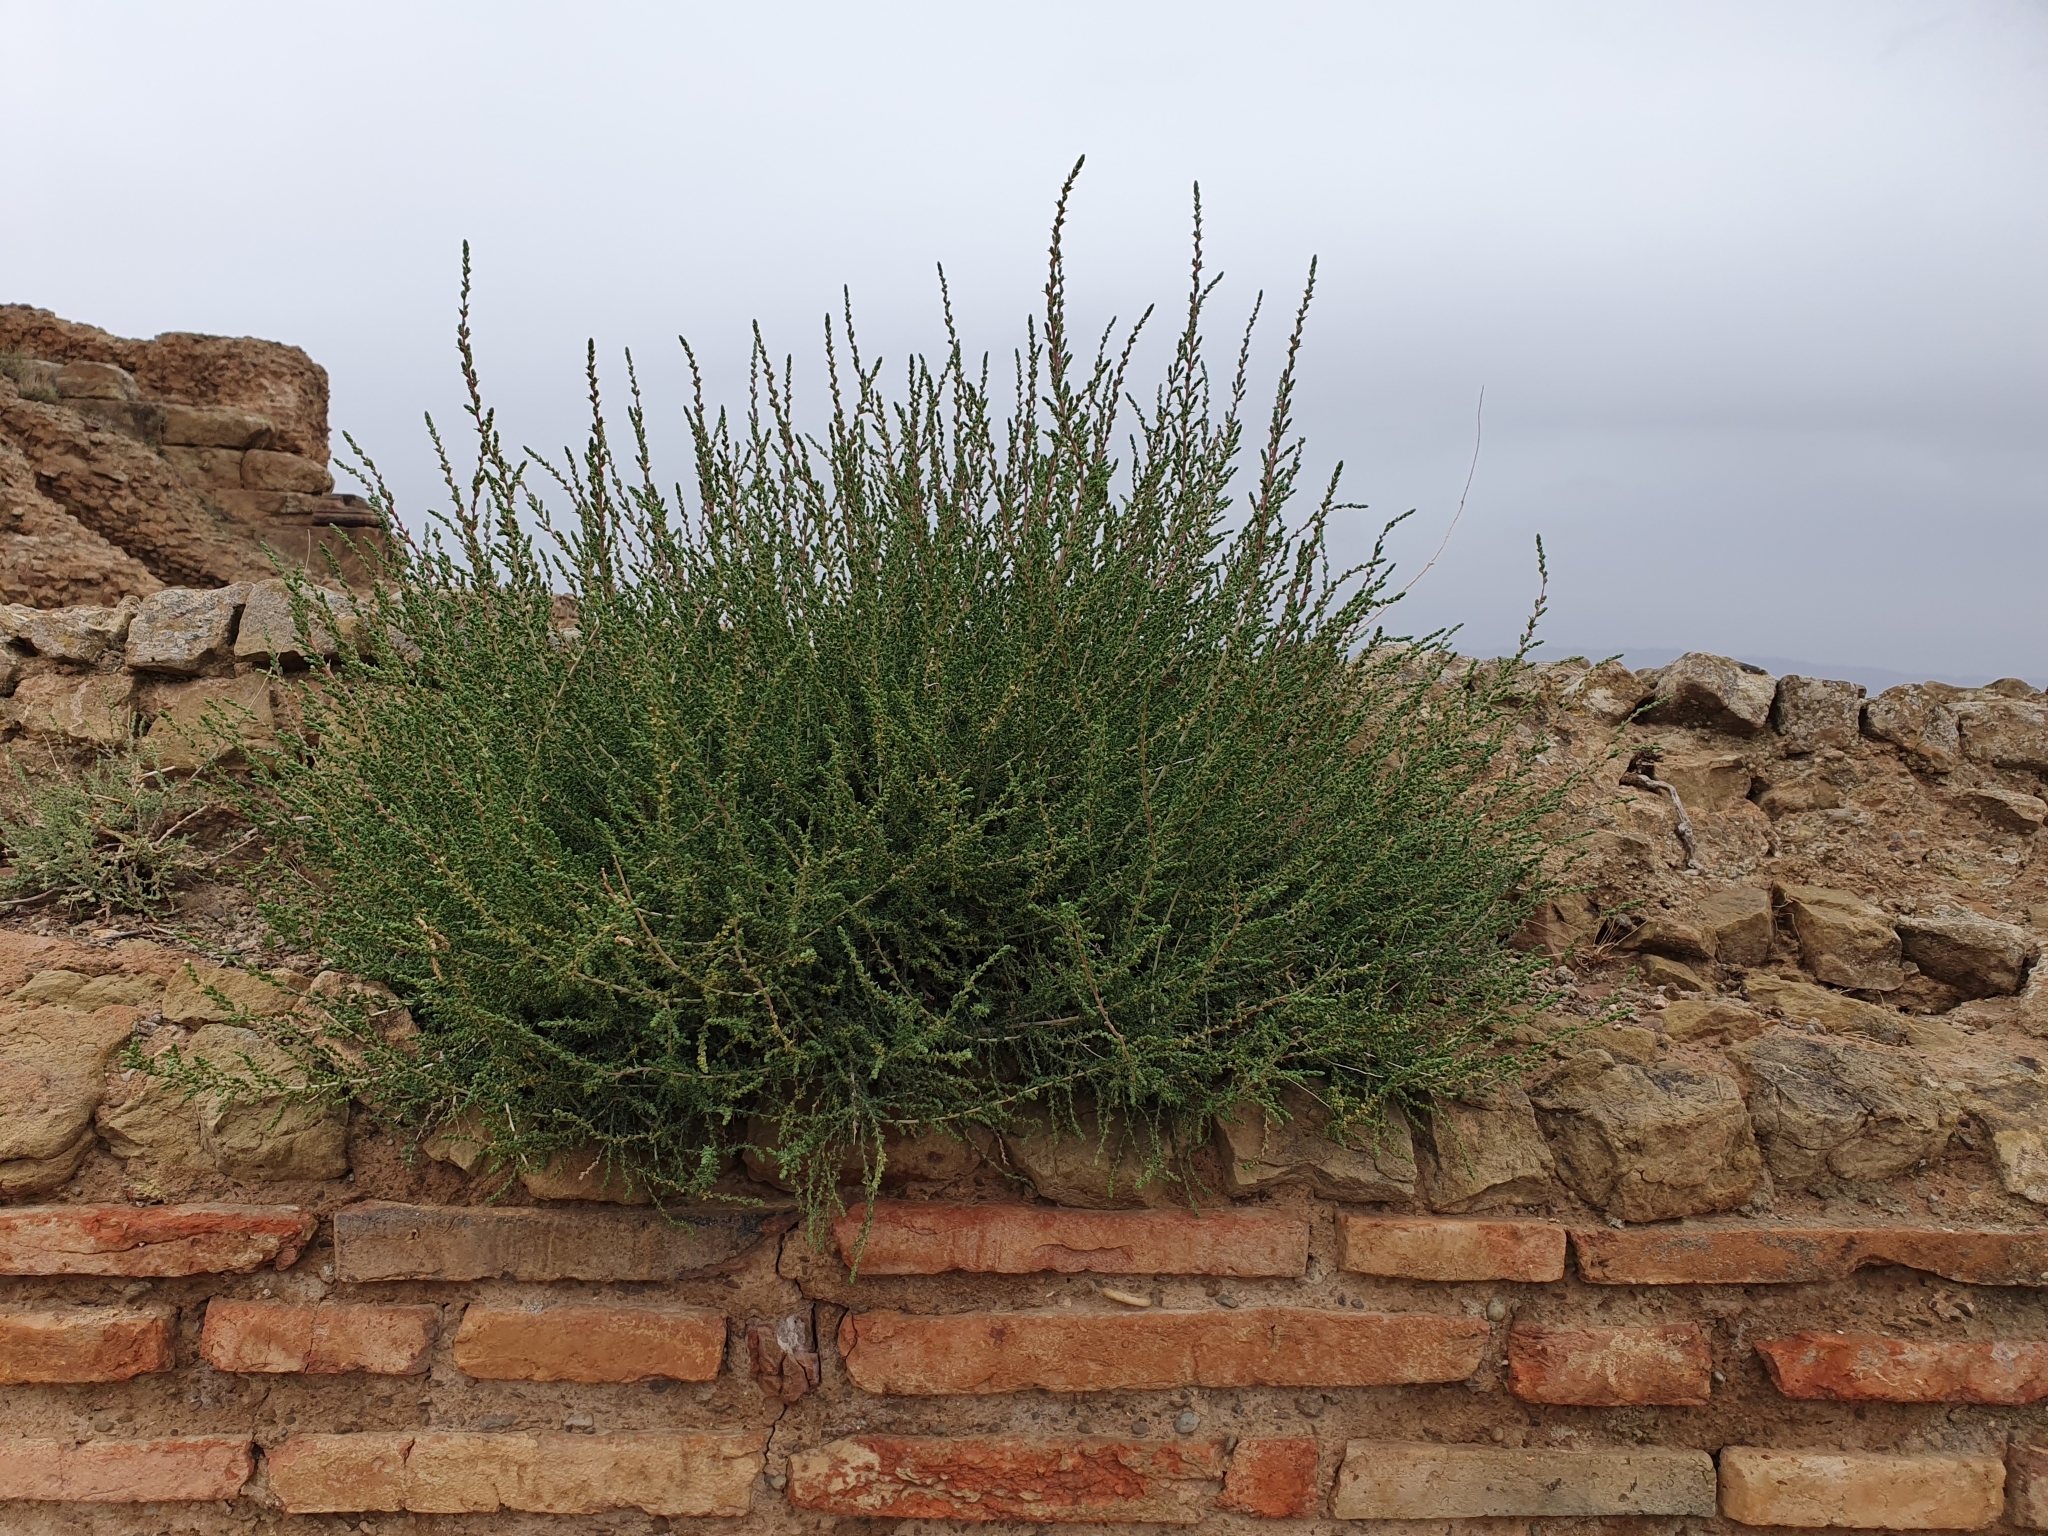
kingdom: Plantae
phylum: Tracheophyta
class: Magnoliopsida
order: Caryophyllales
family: Amaranthaceae
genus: Nitrosalsola
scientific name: Nitrosalsola vermiculata
